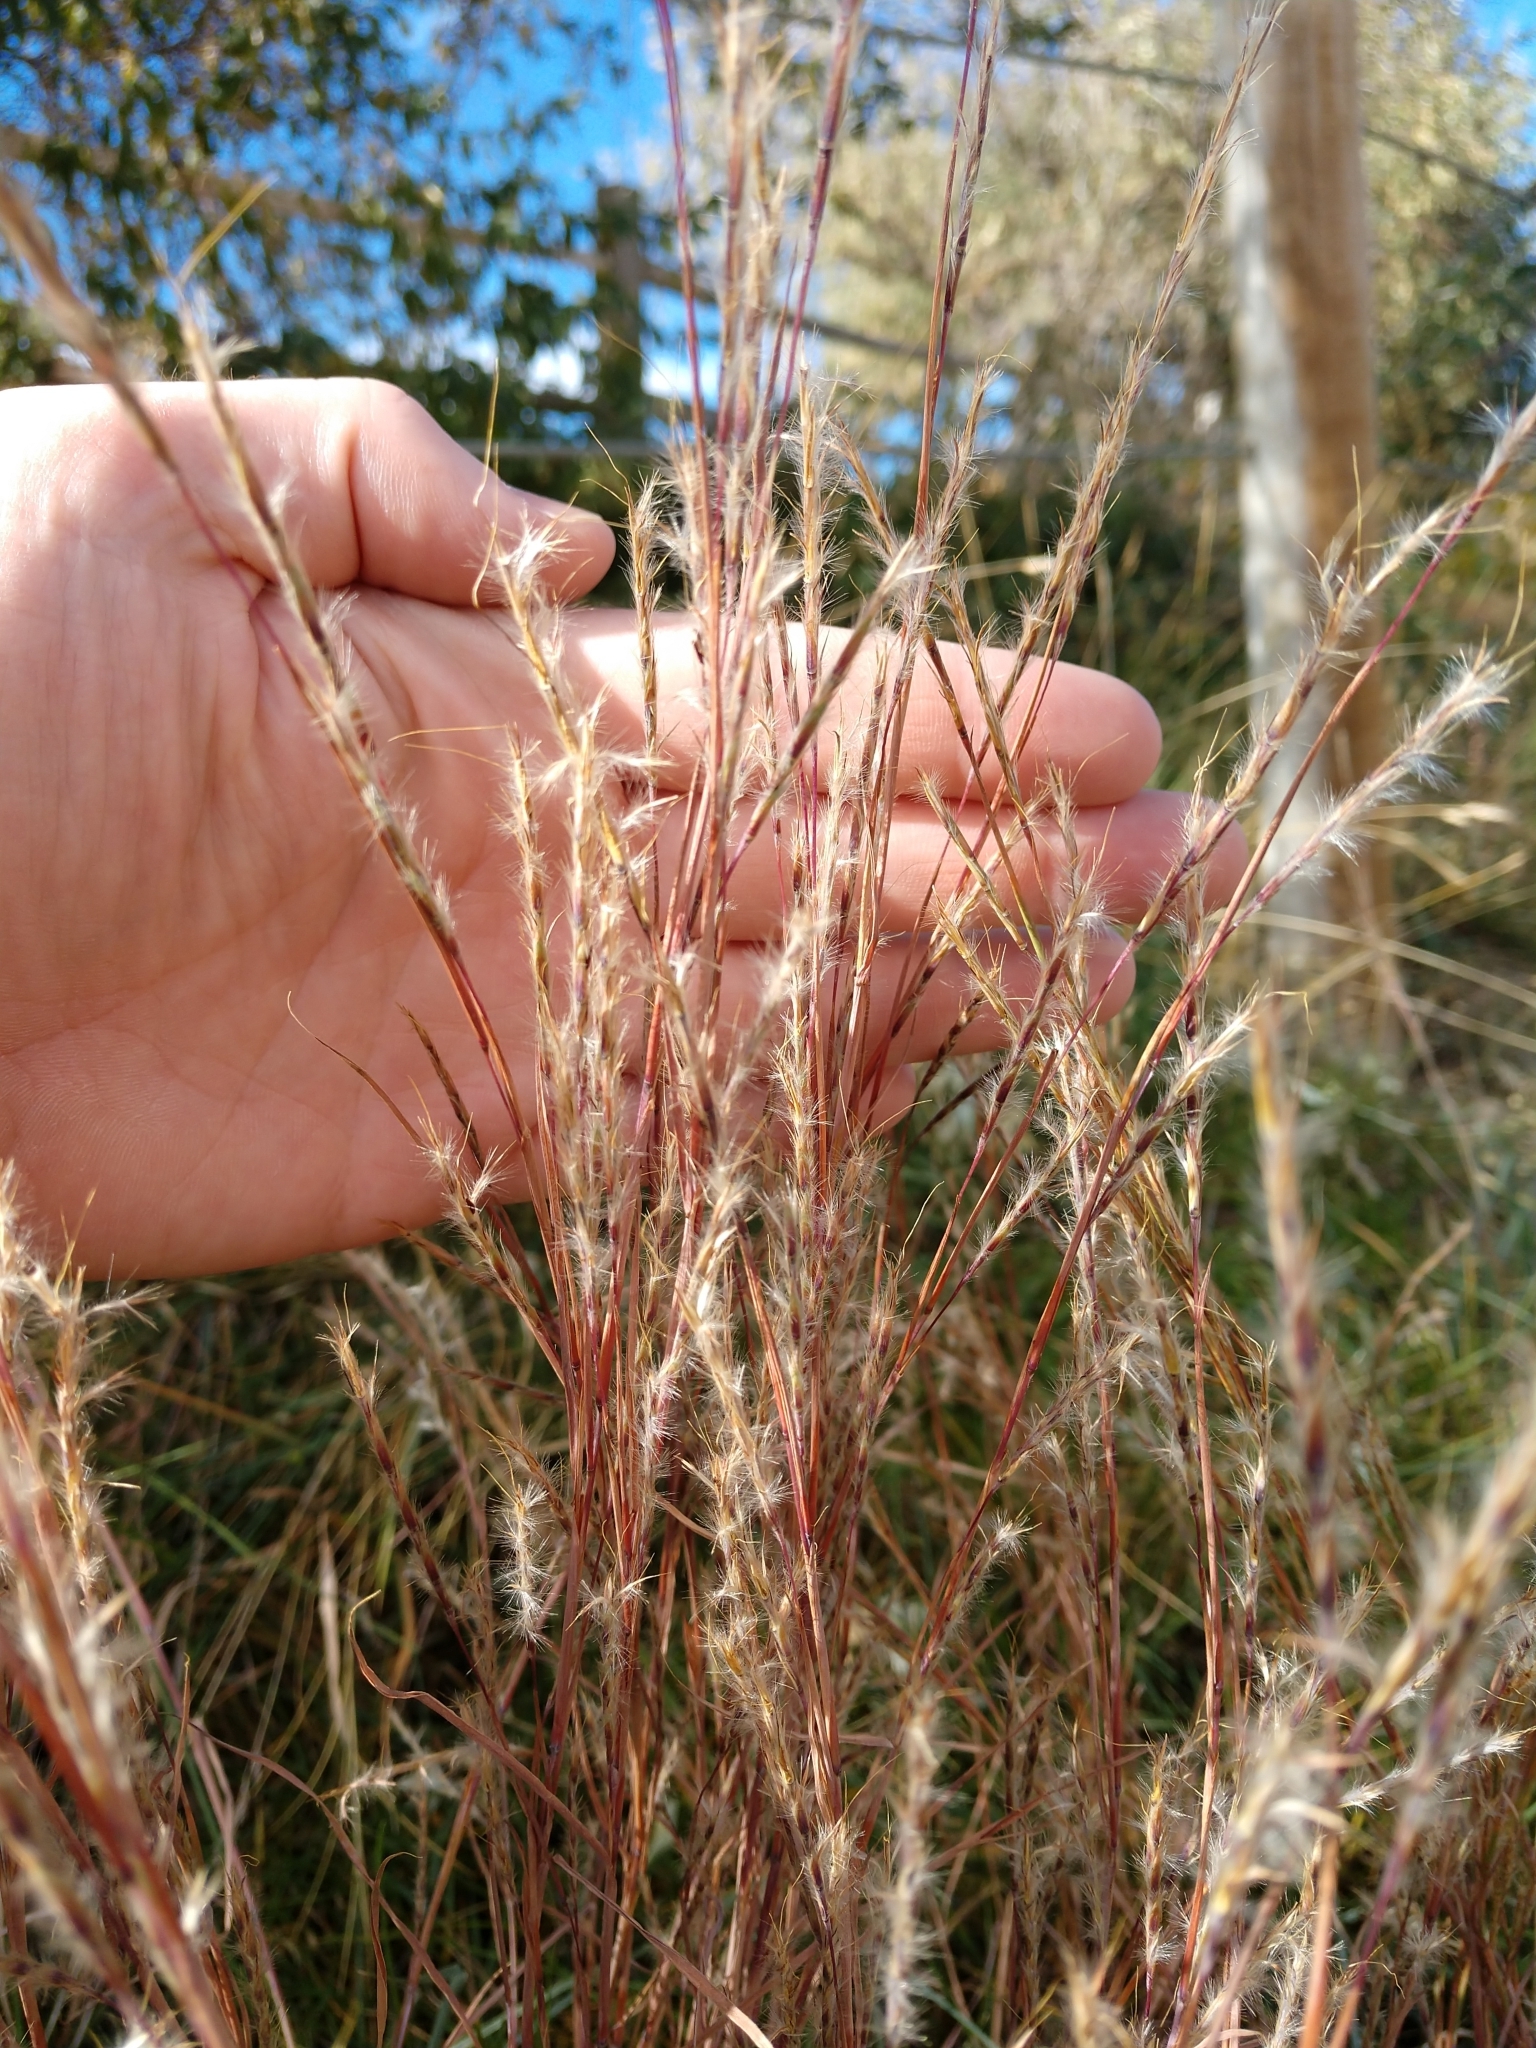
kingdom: Plantae
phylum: Tracheophyta
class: Liliopsida
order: Poales
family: Poaceae
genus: Schizachyrium
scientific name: Schizachyrium scoparium
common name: Little bluestem
